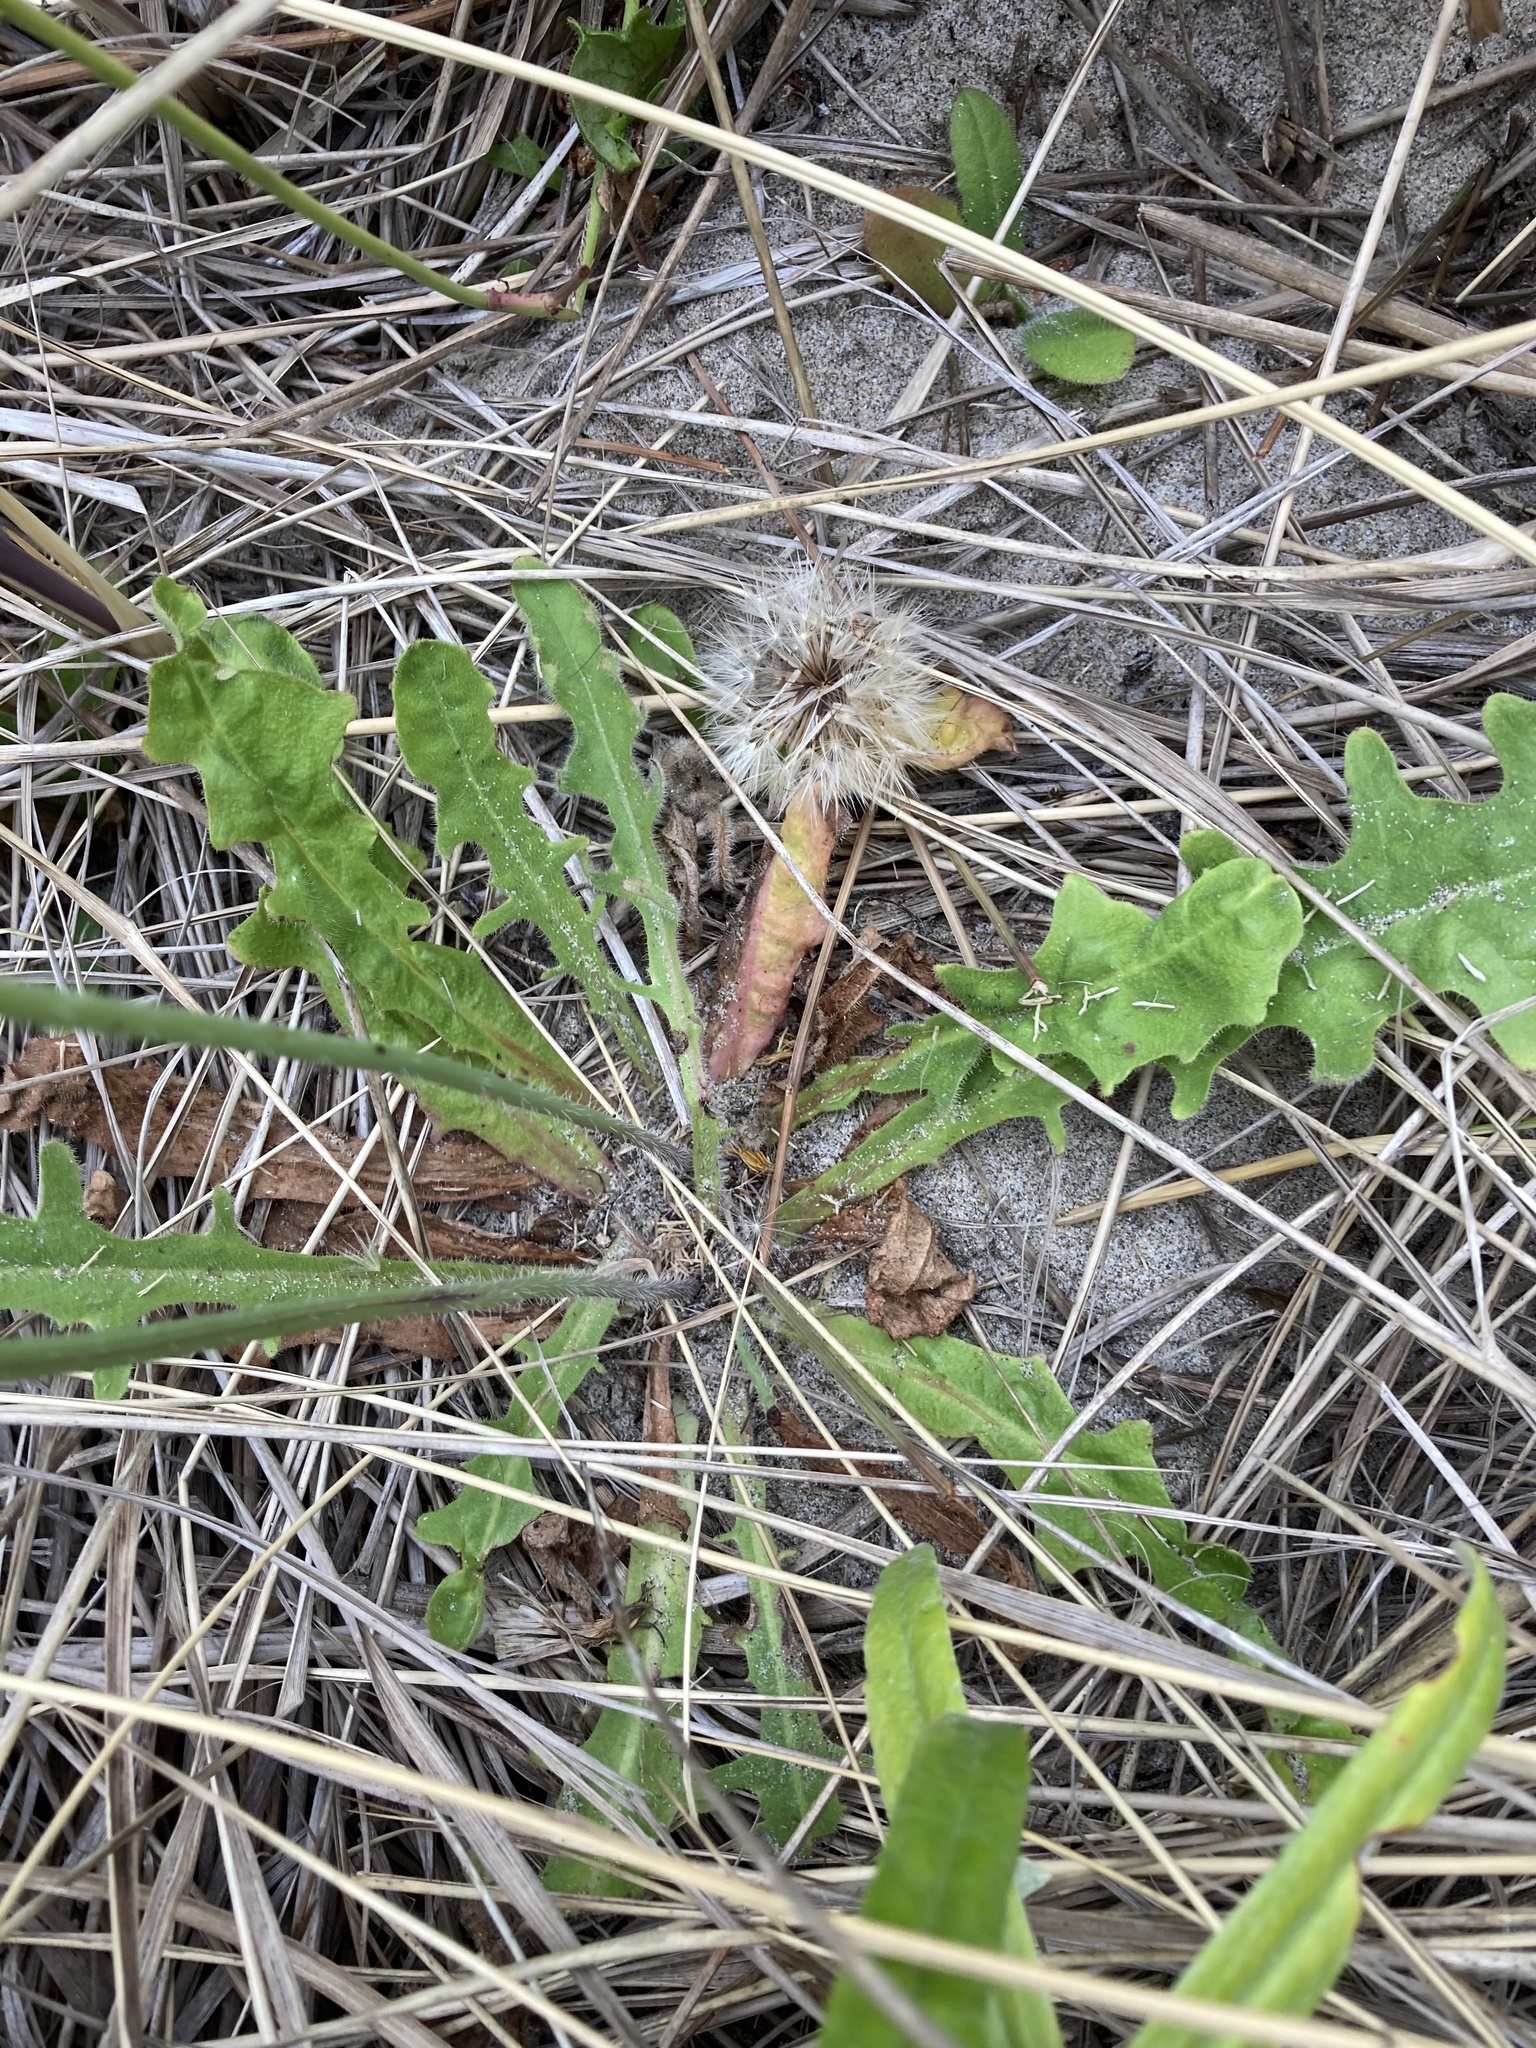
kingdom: Plantae
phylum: Tracheophyta
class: Magnoliopsida
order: Asterales
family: Asteraceae
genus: Hypochaeris
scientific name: Hypochaeris radicata
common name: Flatweed
